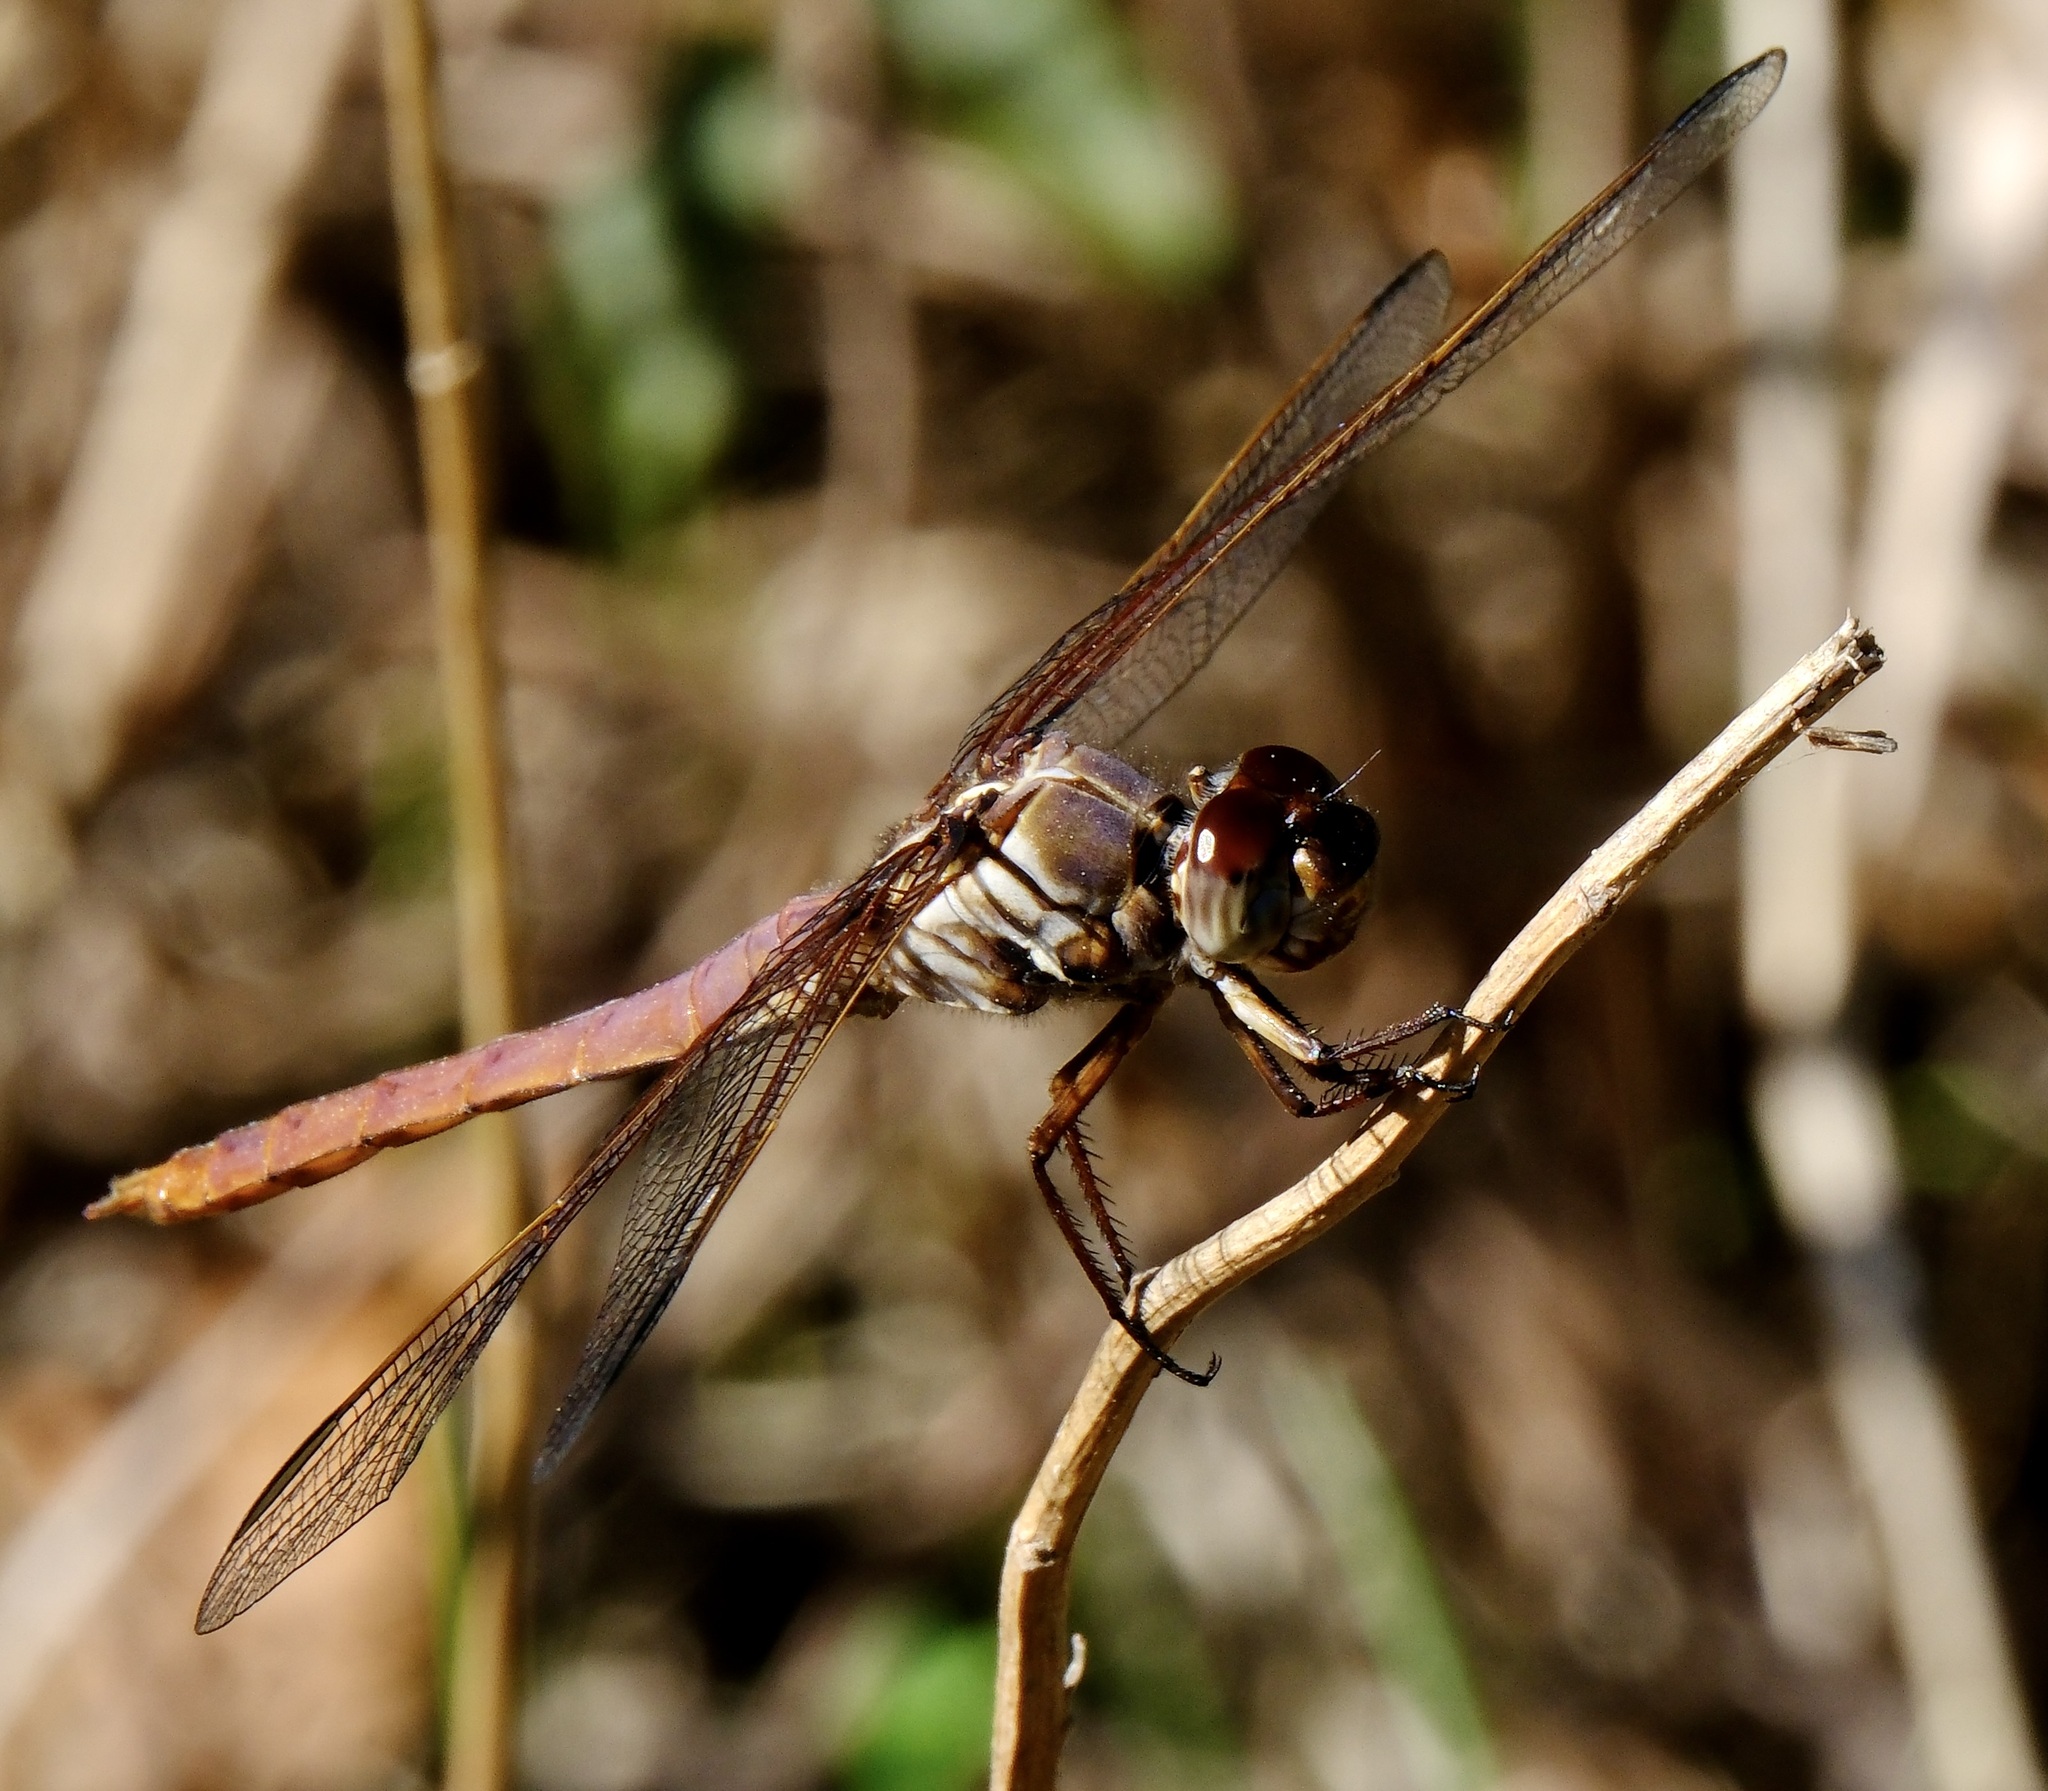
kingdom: Animalia
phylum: Arthropoda
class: Insecta
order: Odonata
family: Libellulidae
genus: Orthemis
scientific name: Orthemis ferruginea
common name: Roseate skimmer
